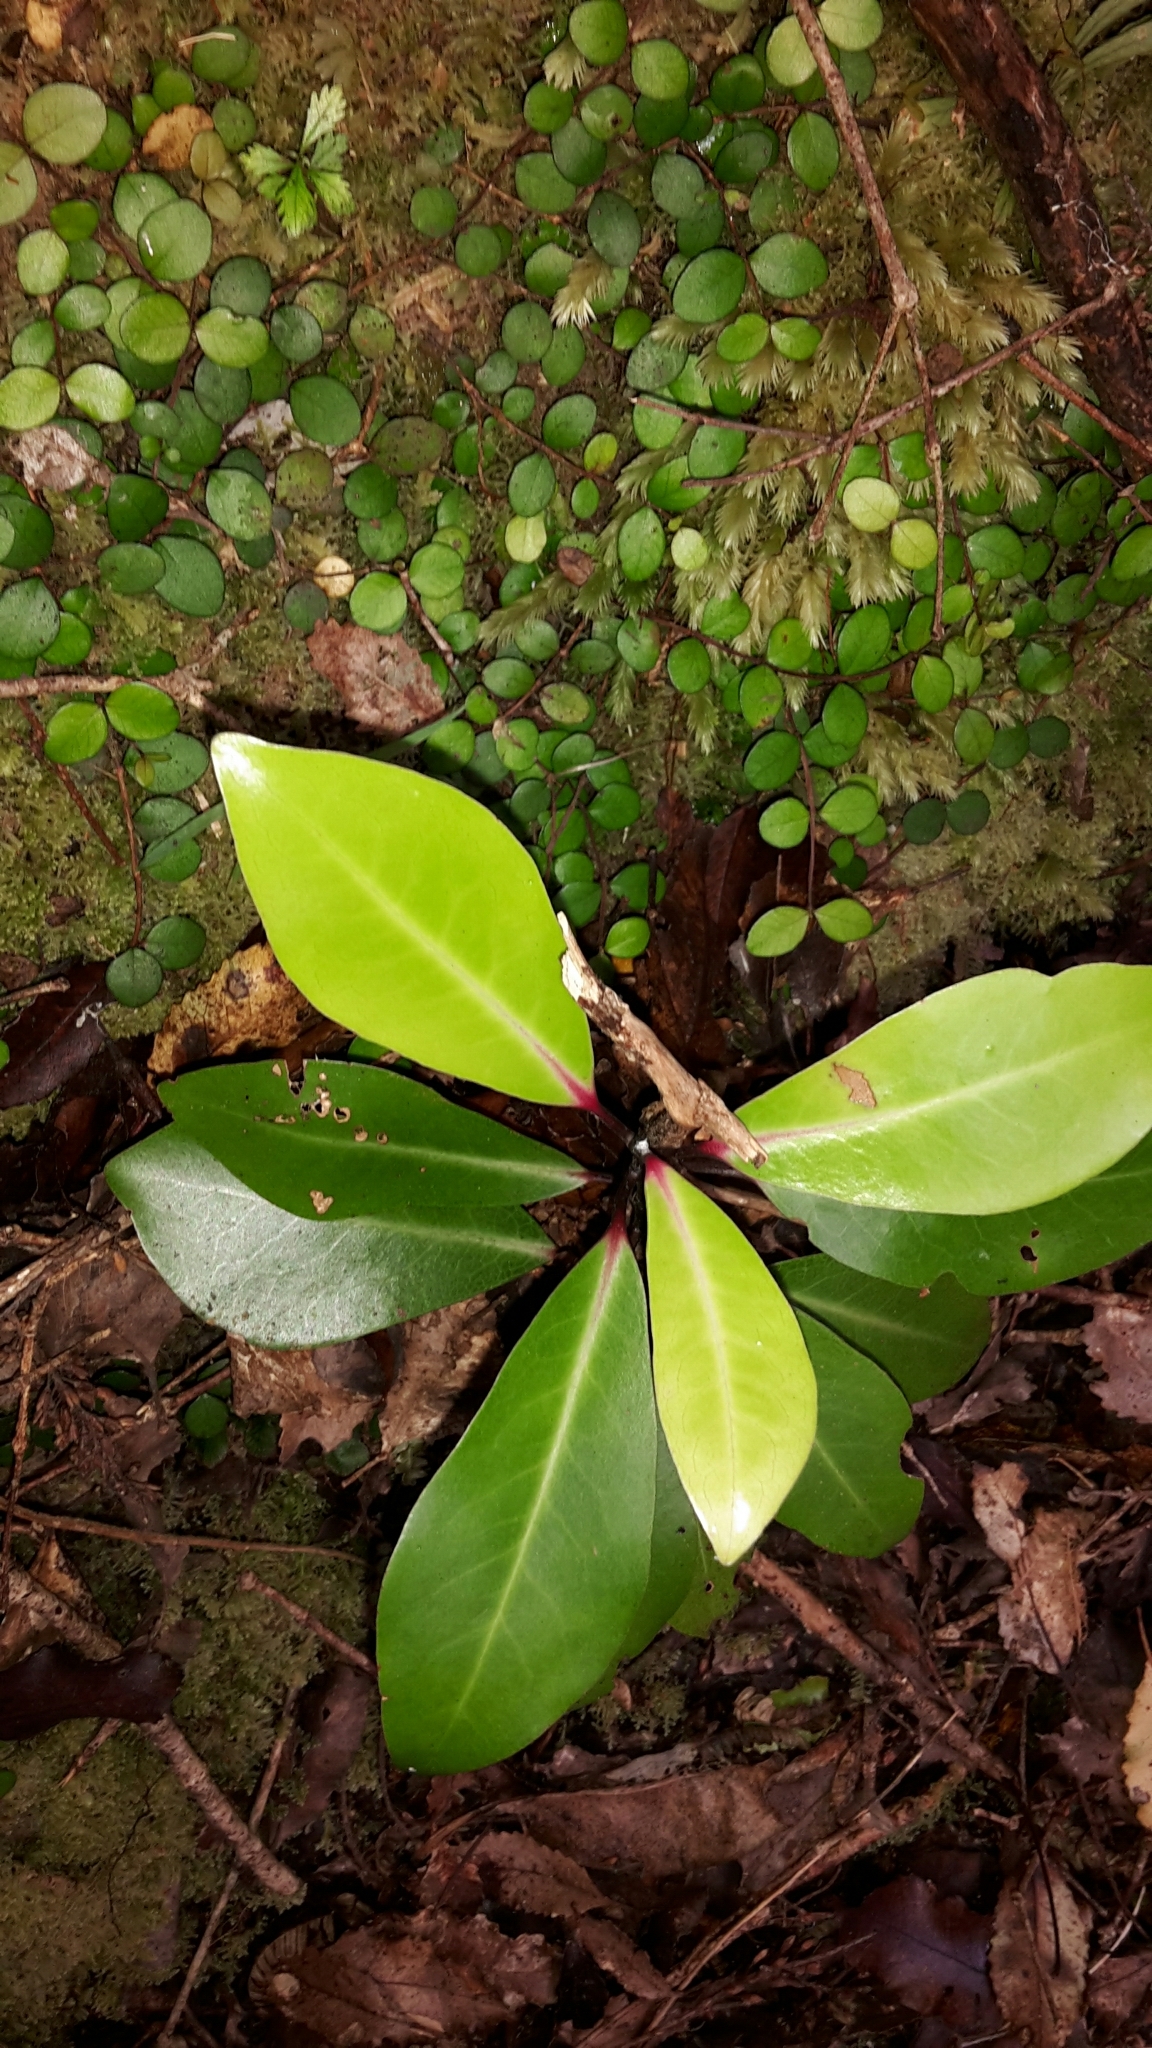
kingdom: Plantae
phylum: Tracheophyta
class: Magnoliopsida
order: Canellales
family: Winteraceae
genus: Pseudowintera
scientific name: Pseudowintera axillaris
